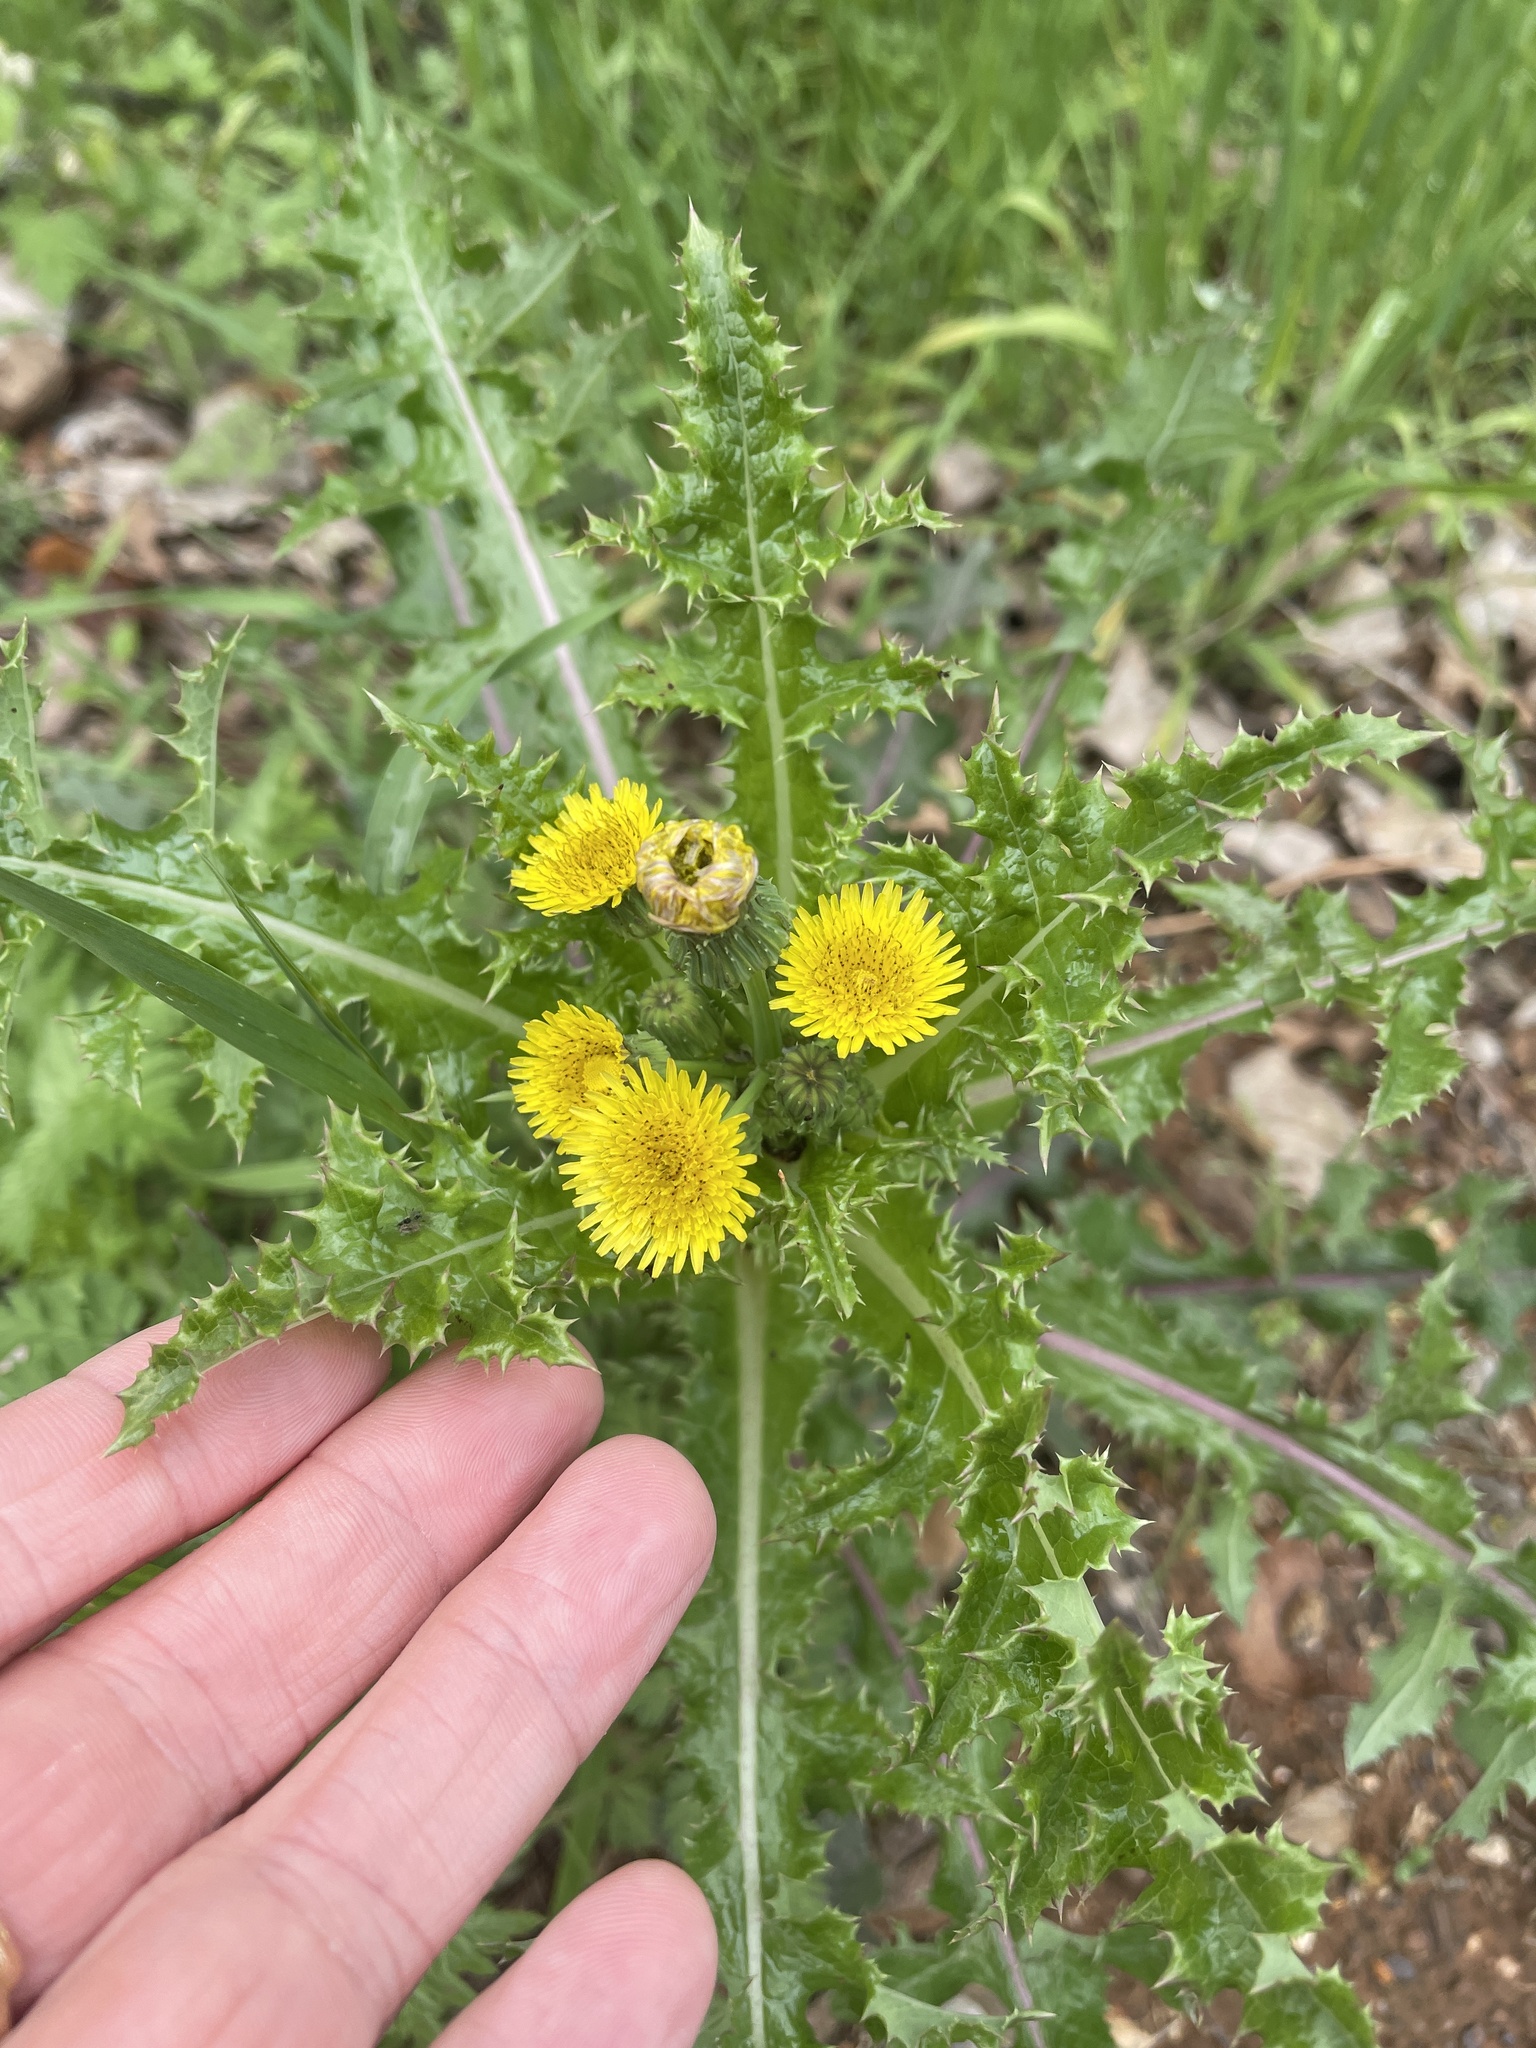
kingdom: Plantae
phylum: Tracheophyta
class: Magnoliopsida
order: Asterales
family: Asteraceae
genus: Sonchus
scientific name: Sonchus asper
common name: Prickly sow-thistle
